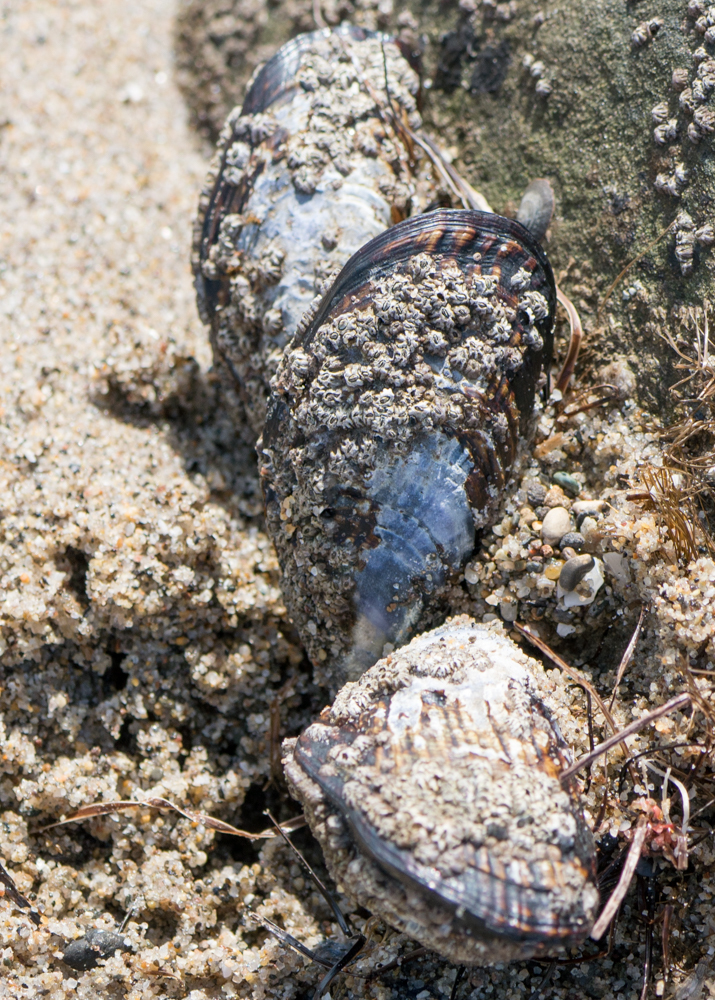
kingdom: Animalia
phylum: Mollusca
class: Bivalvia
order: Mytilida
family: Mytilidae
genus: Mytilus
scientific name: Mytilus californianus
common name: California mussel
